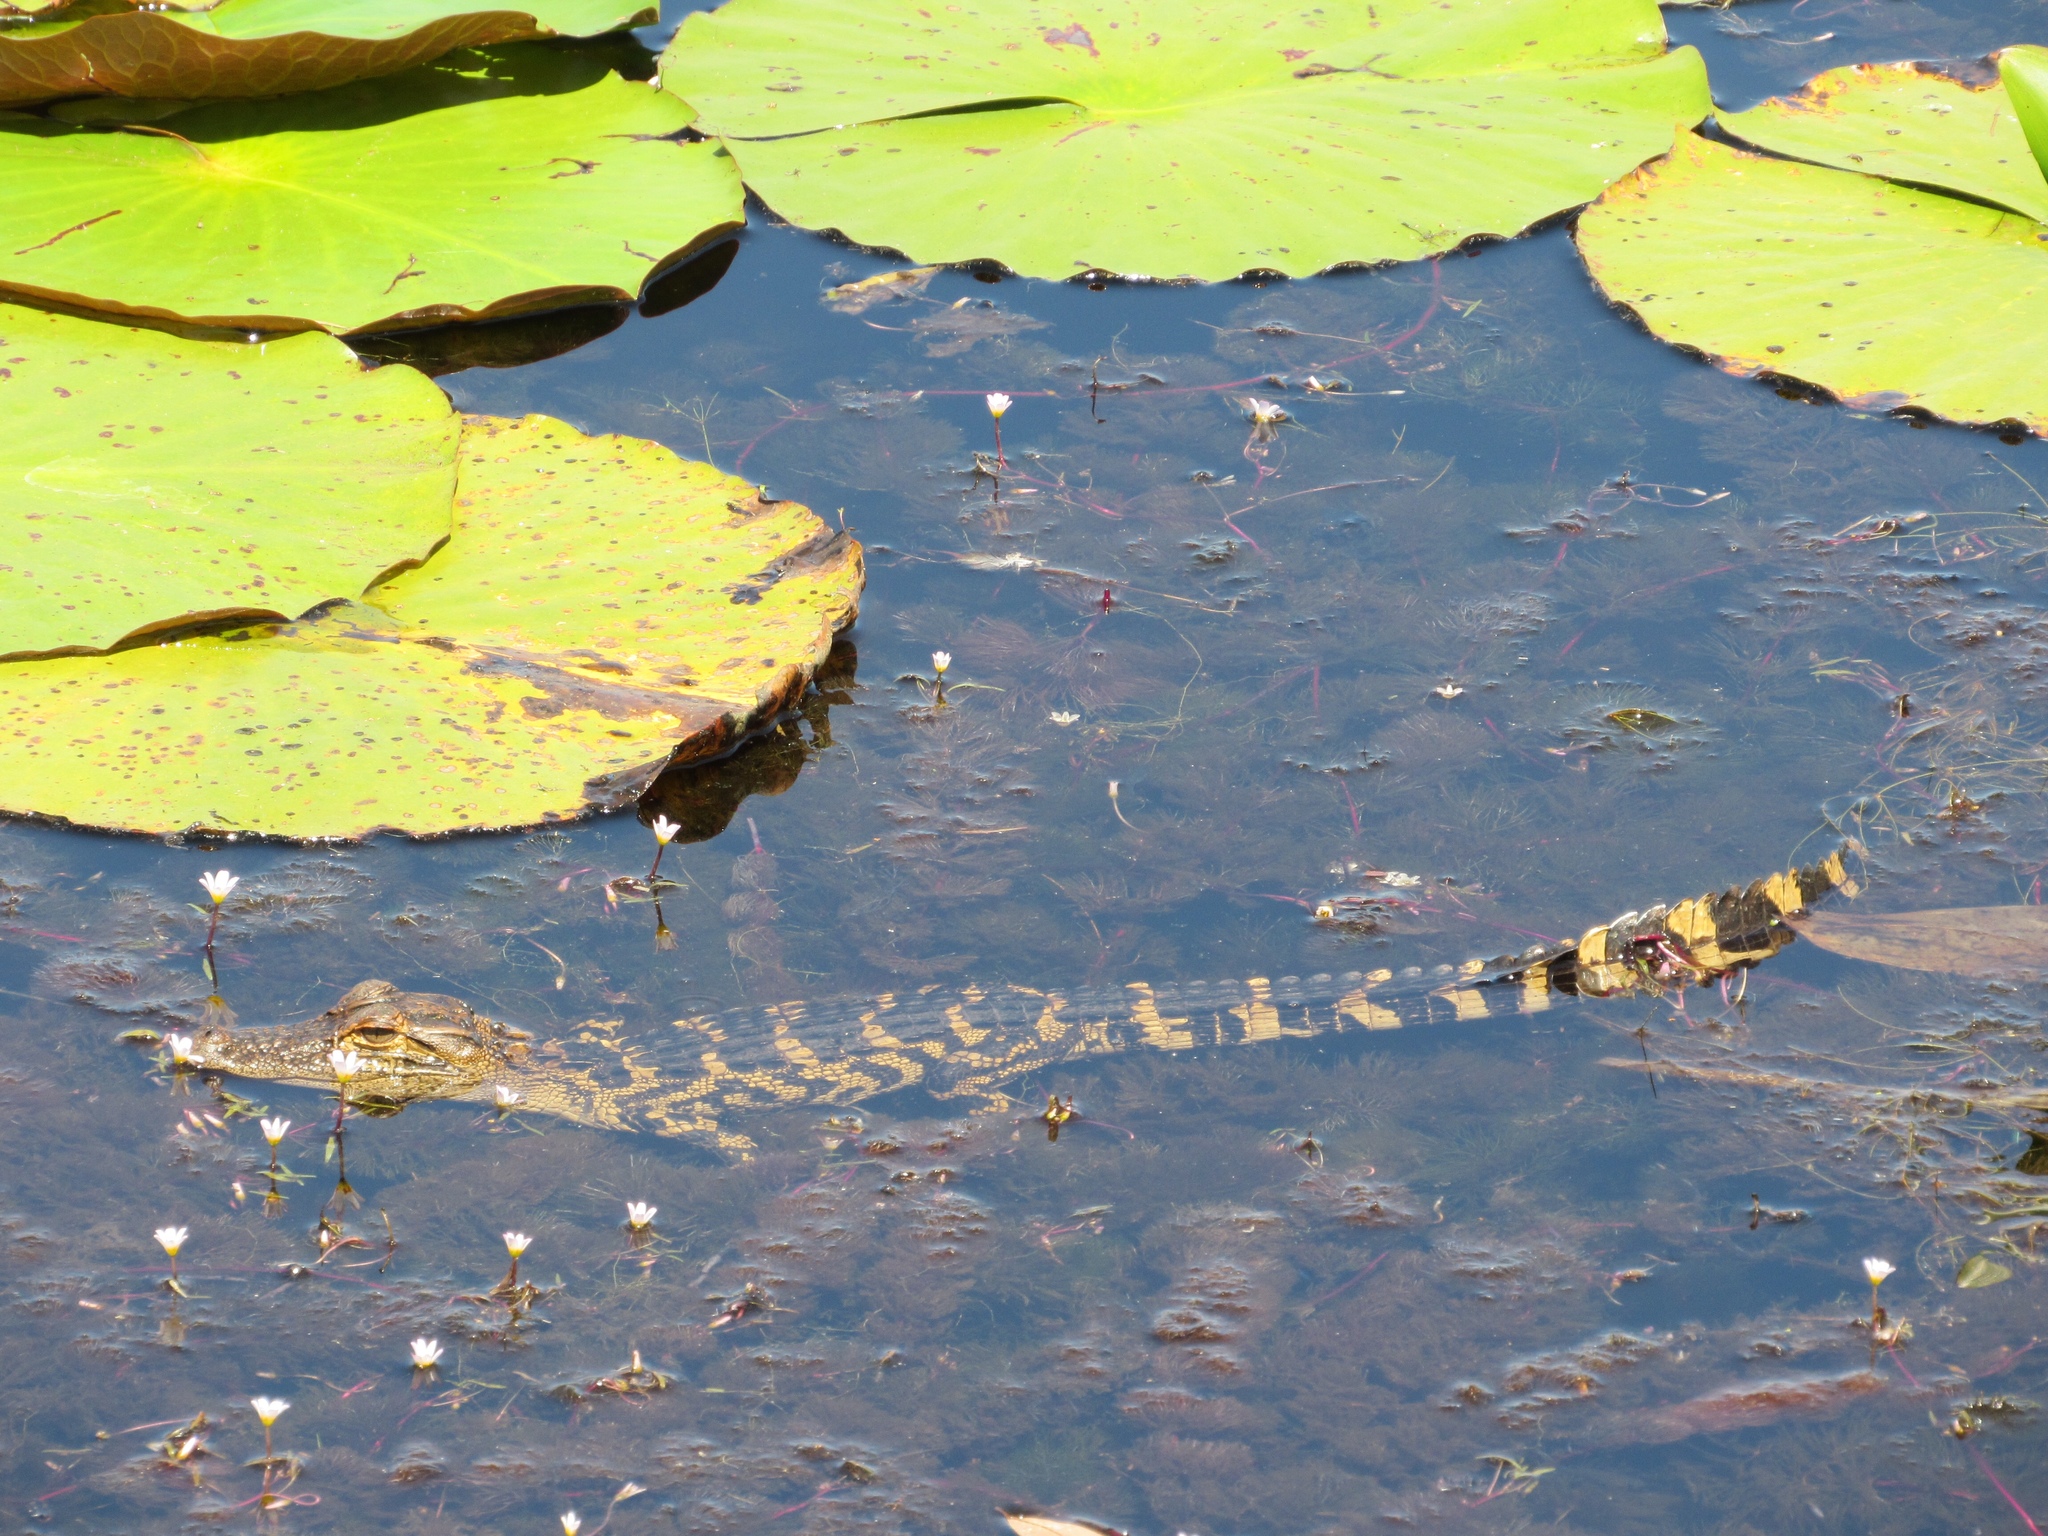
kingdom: Animalia
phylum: Chordata
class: Crocodylia
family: Alligatoridae
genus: Alligator
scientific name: Alligator mississippiensis
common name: American alligator
